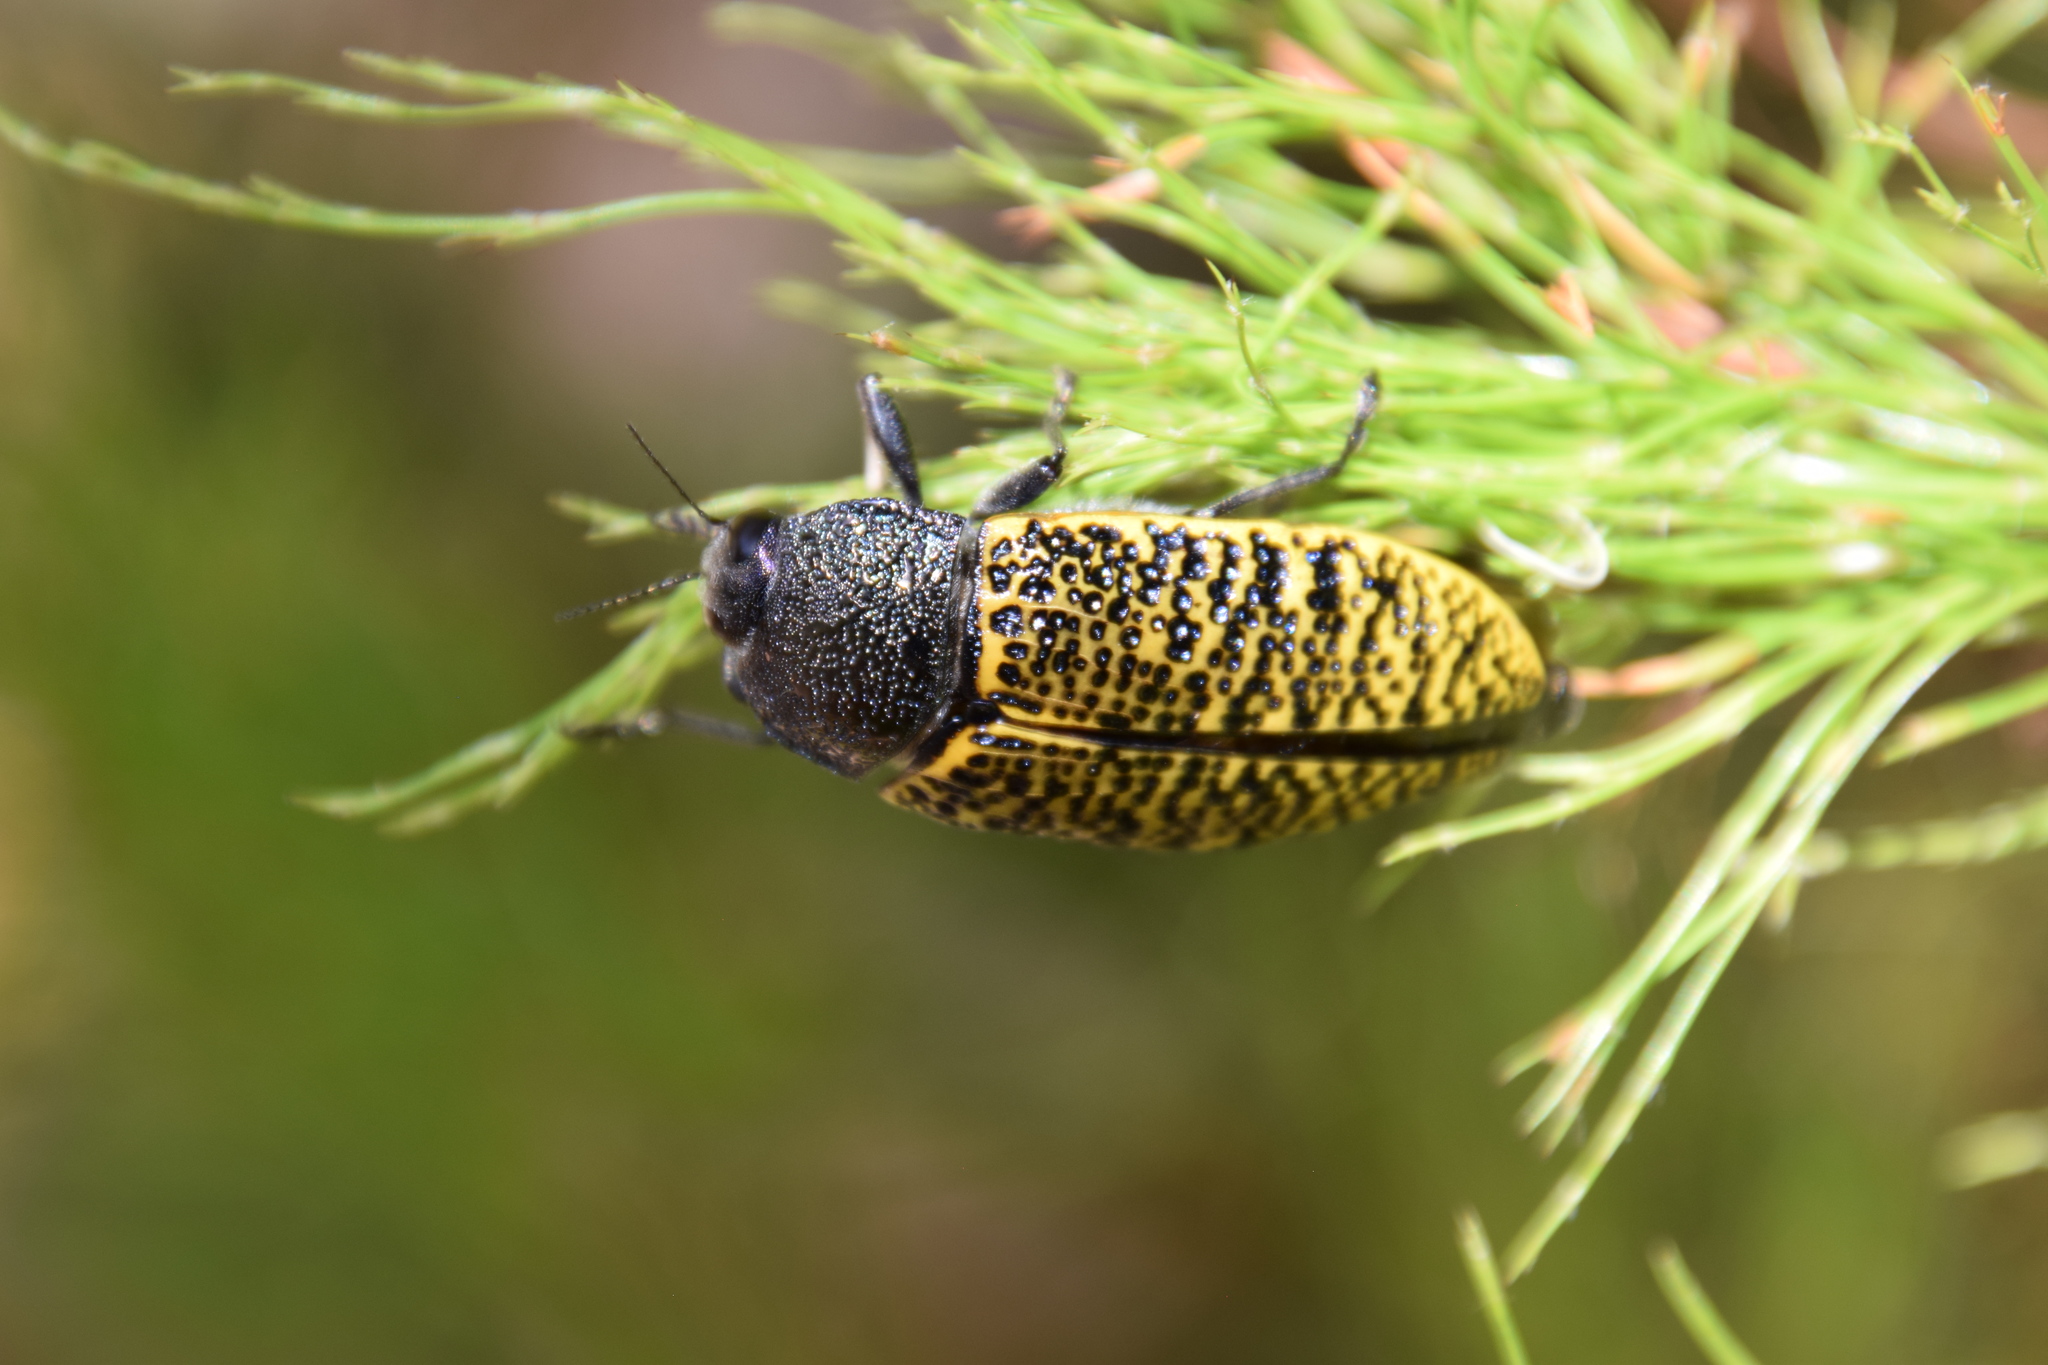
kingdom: Animalia
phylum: Arthropoda
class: Insecta
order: Coleoptera
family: Buprestidae
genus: Stigmodera
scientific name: Stigmodera macularia
